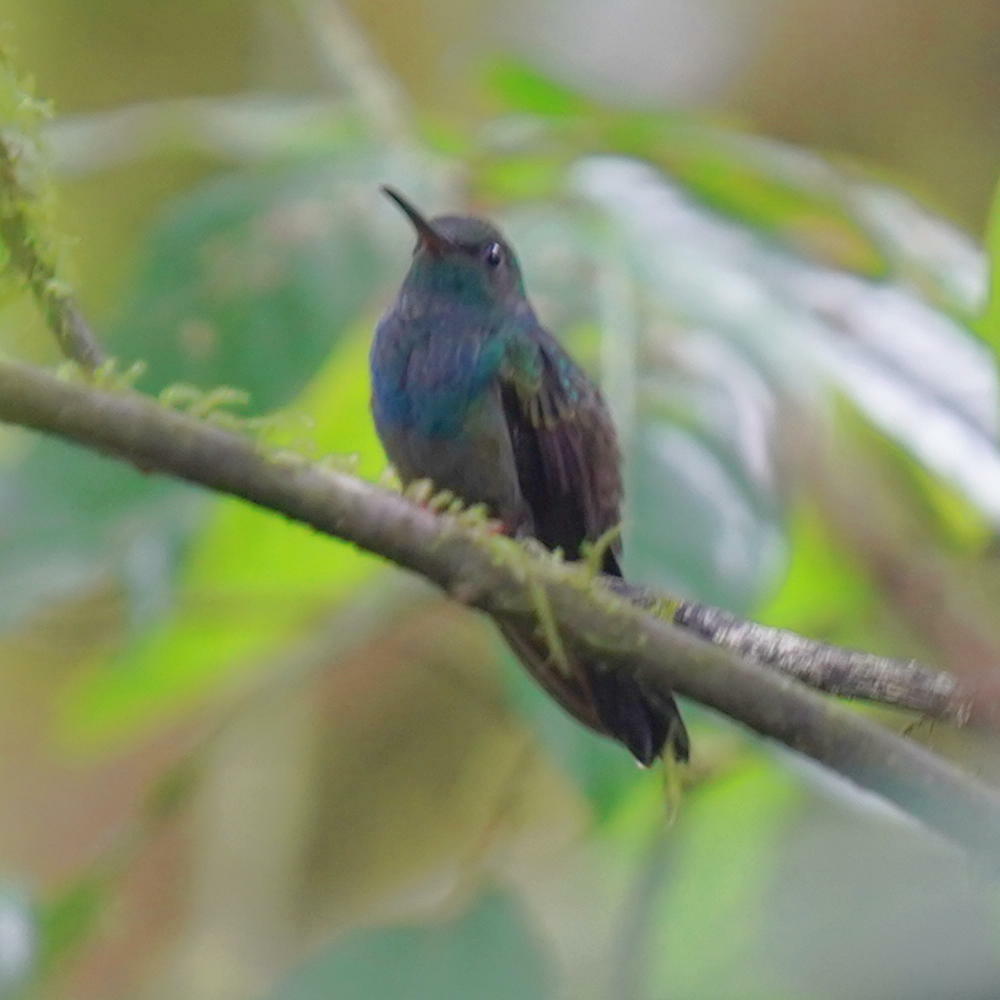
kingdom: Animalia
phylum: Chordata
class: Aves
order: Apodiformes
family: Trochilidae
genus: Chalybura
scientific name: Chalybura urochrysia
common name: Bronze-tailed plumeleteer
